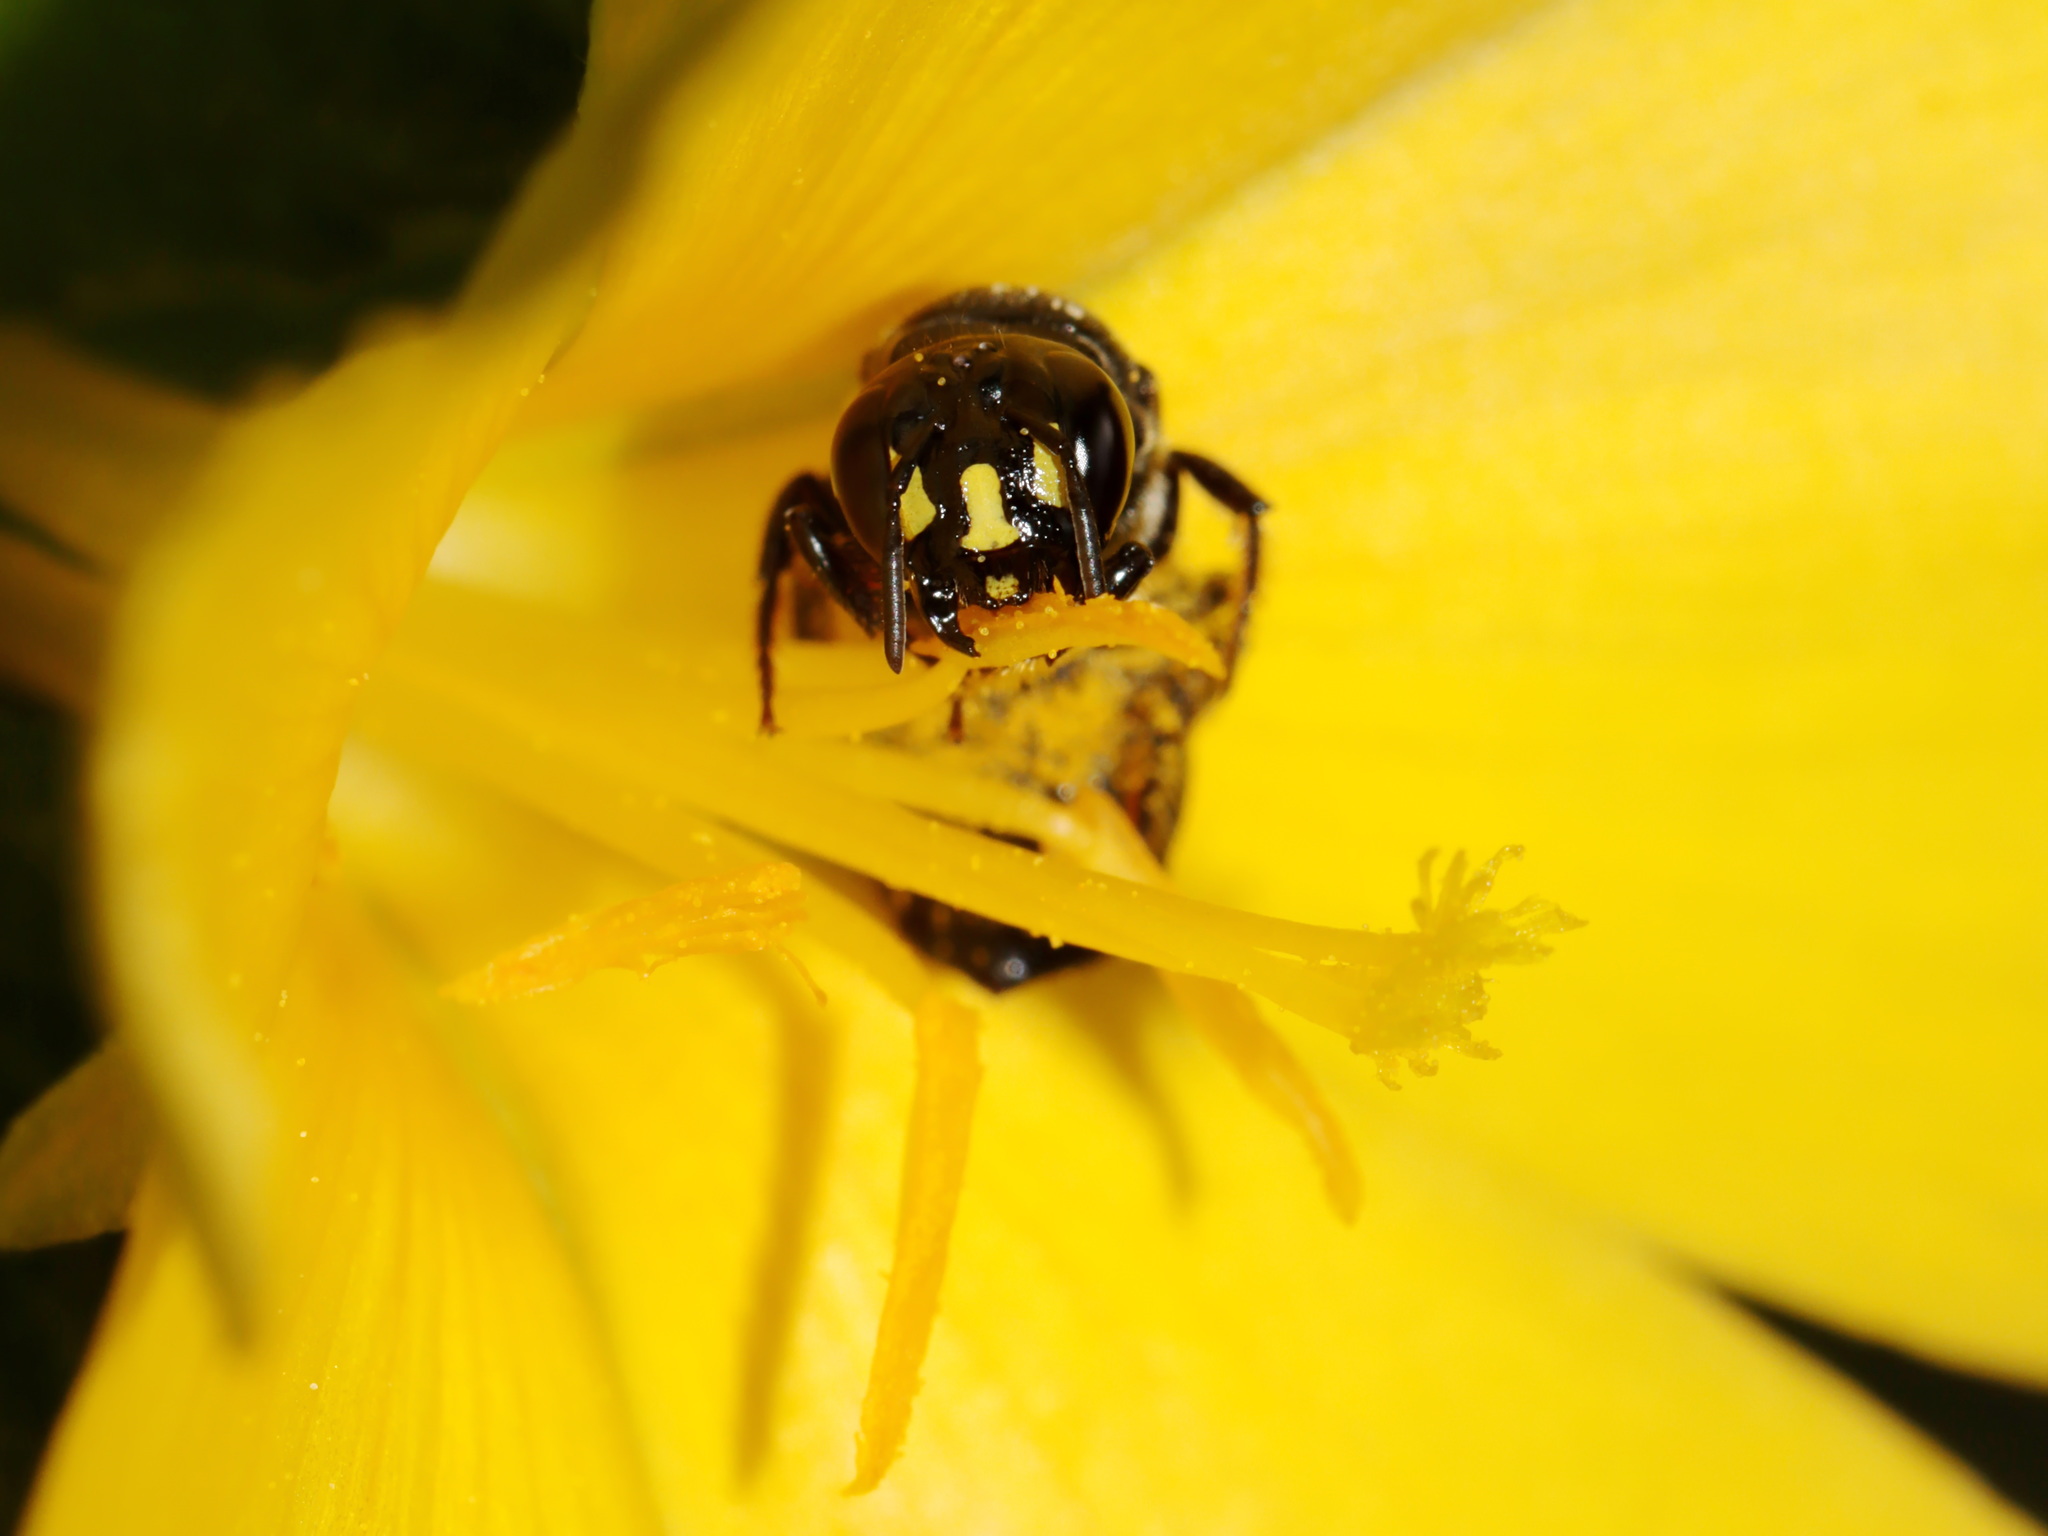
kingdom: Animalia
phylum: Arthropoda
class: Insecta
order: Hymenoptera
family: Apidae
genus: Ceratina
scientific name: Ceratina perforatrix
